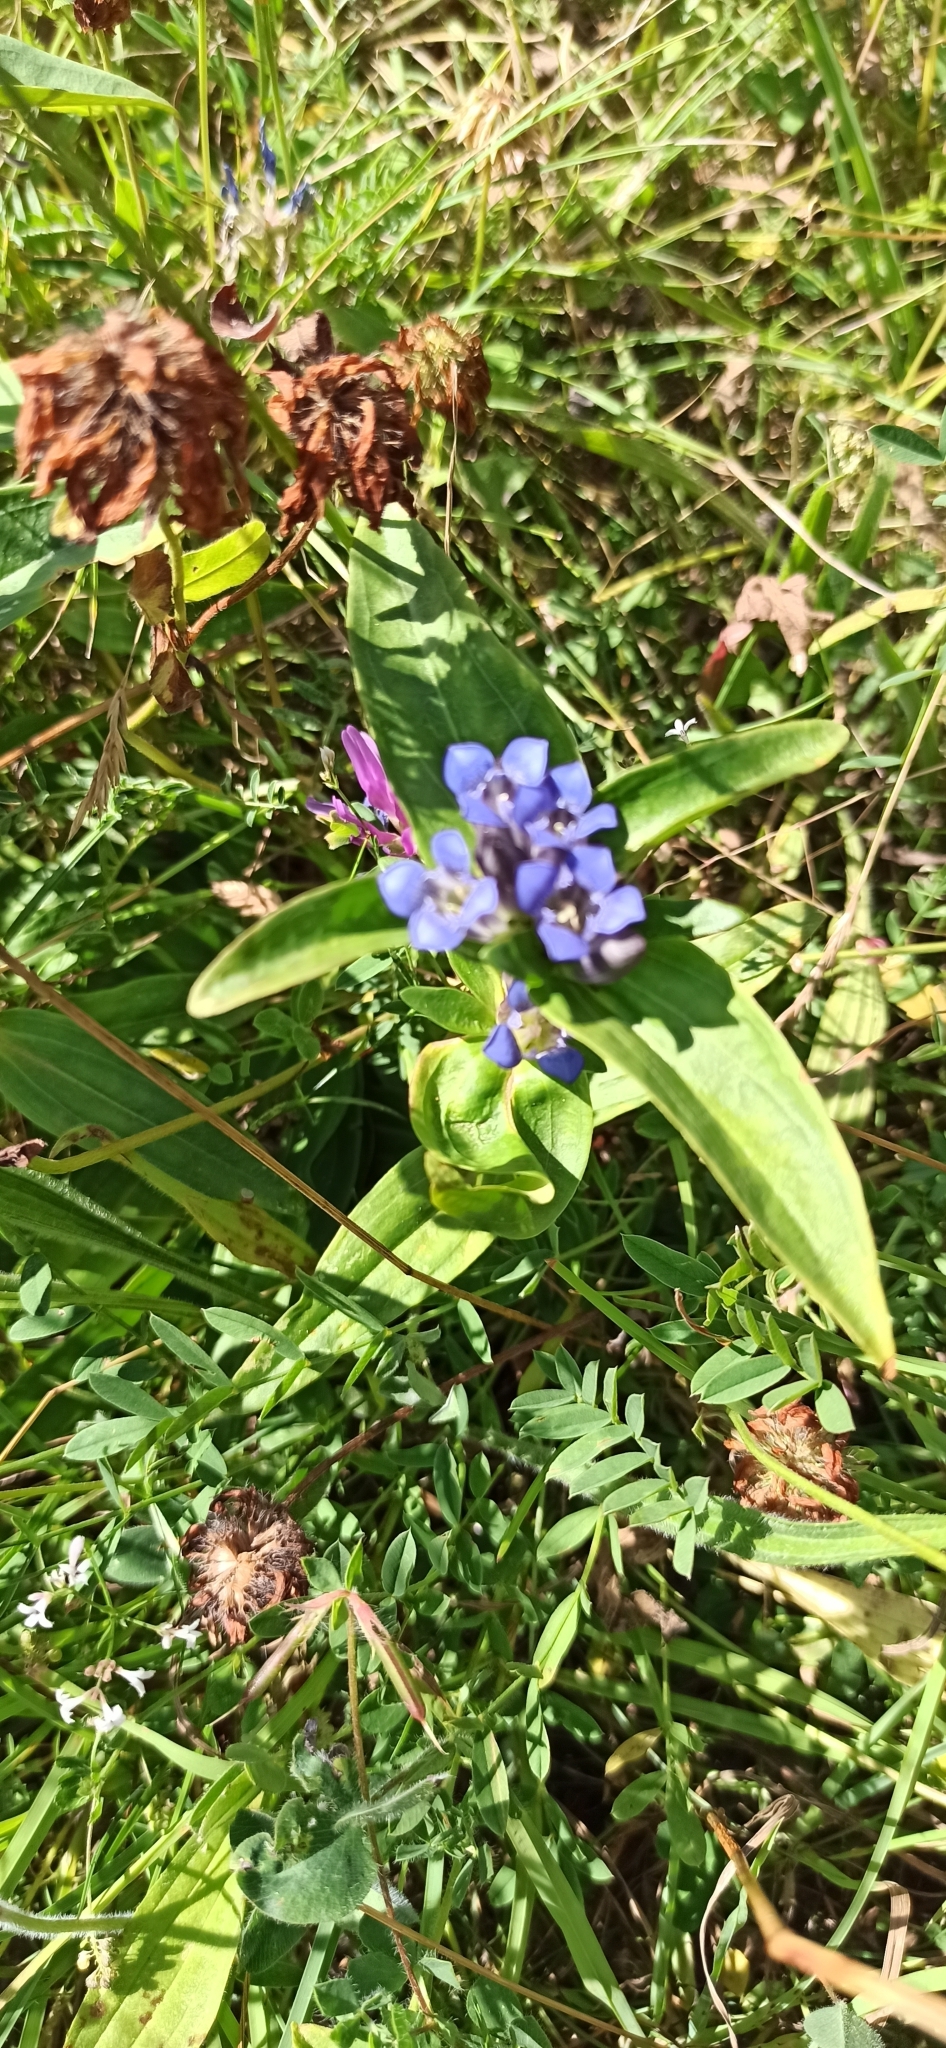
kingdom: Plantae
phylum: Tracheophyta
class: Magnoliopsida
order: Gentianales
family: Gentianaceae
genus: Gentiana
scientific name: Gentiana cruciata
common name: Cross gentian
